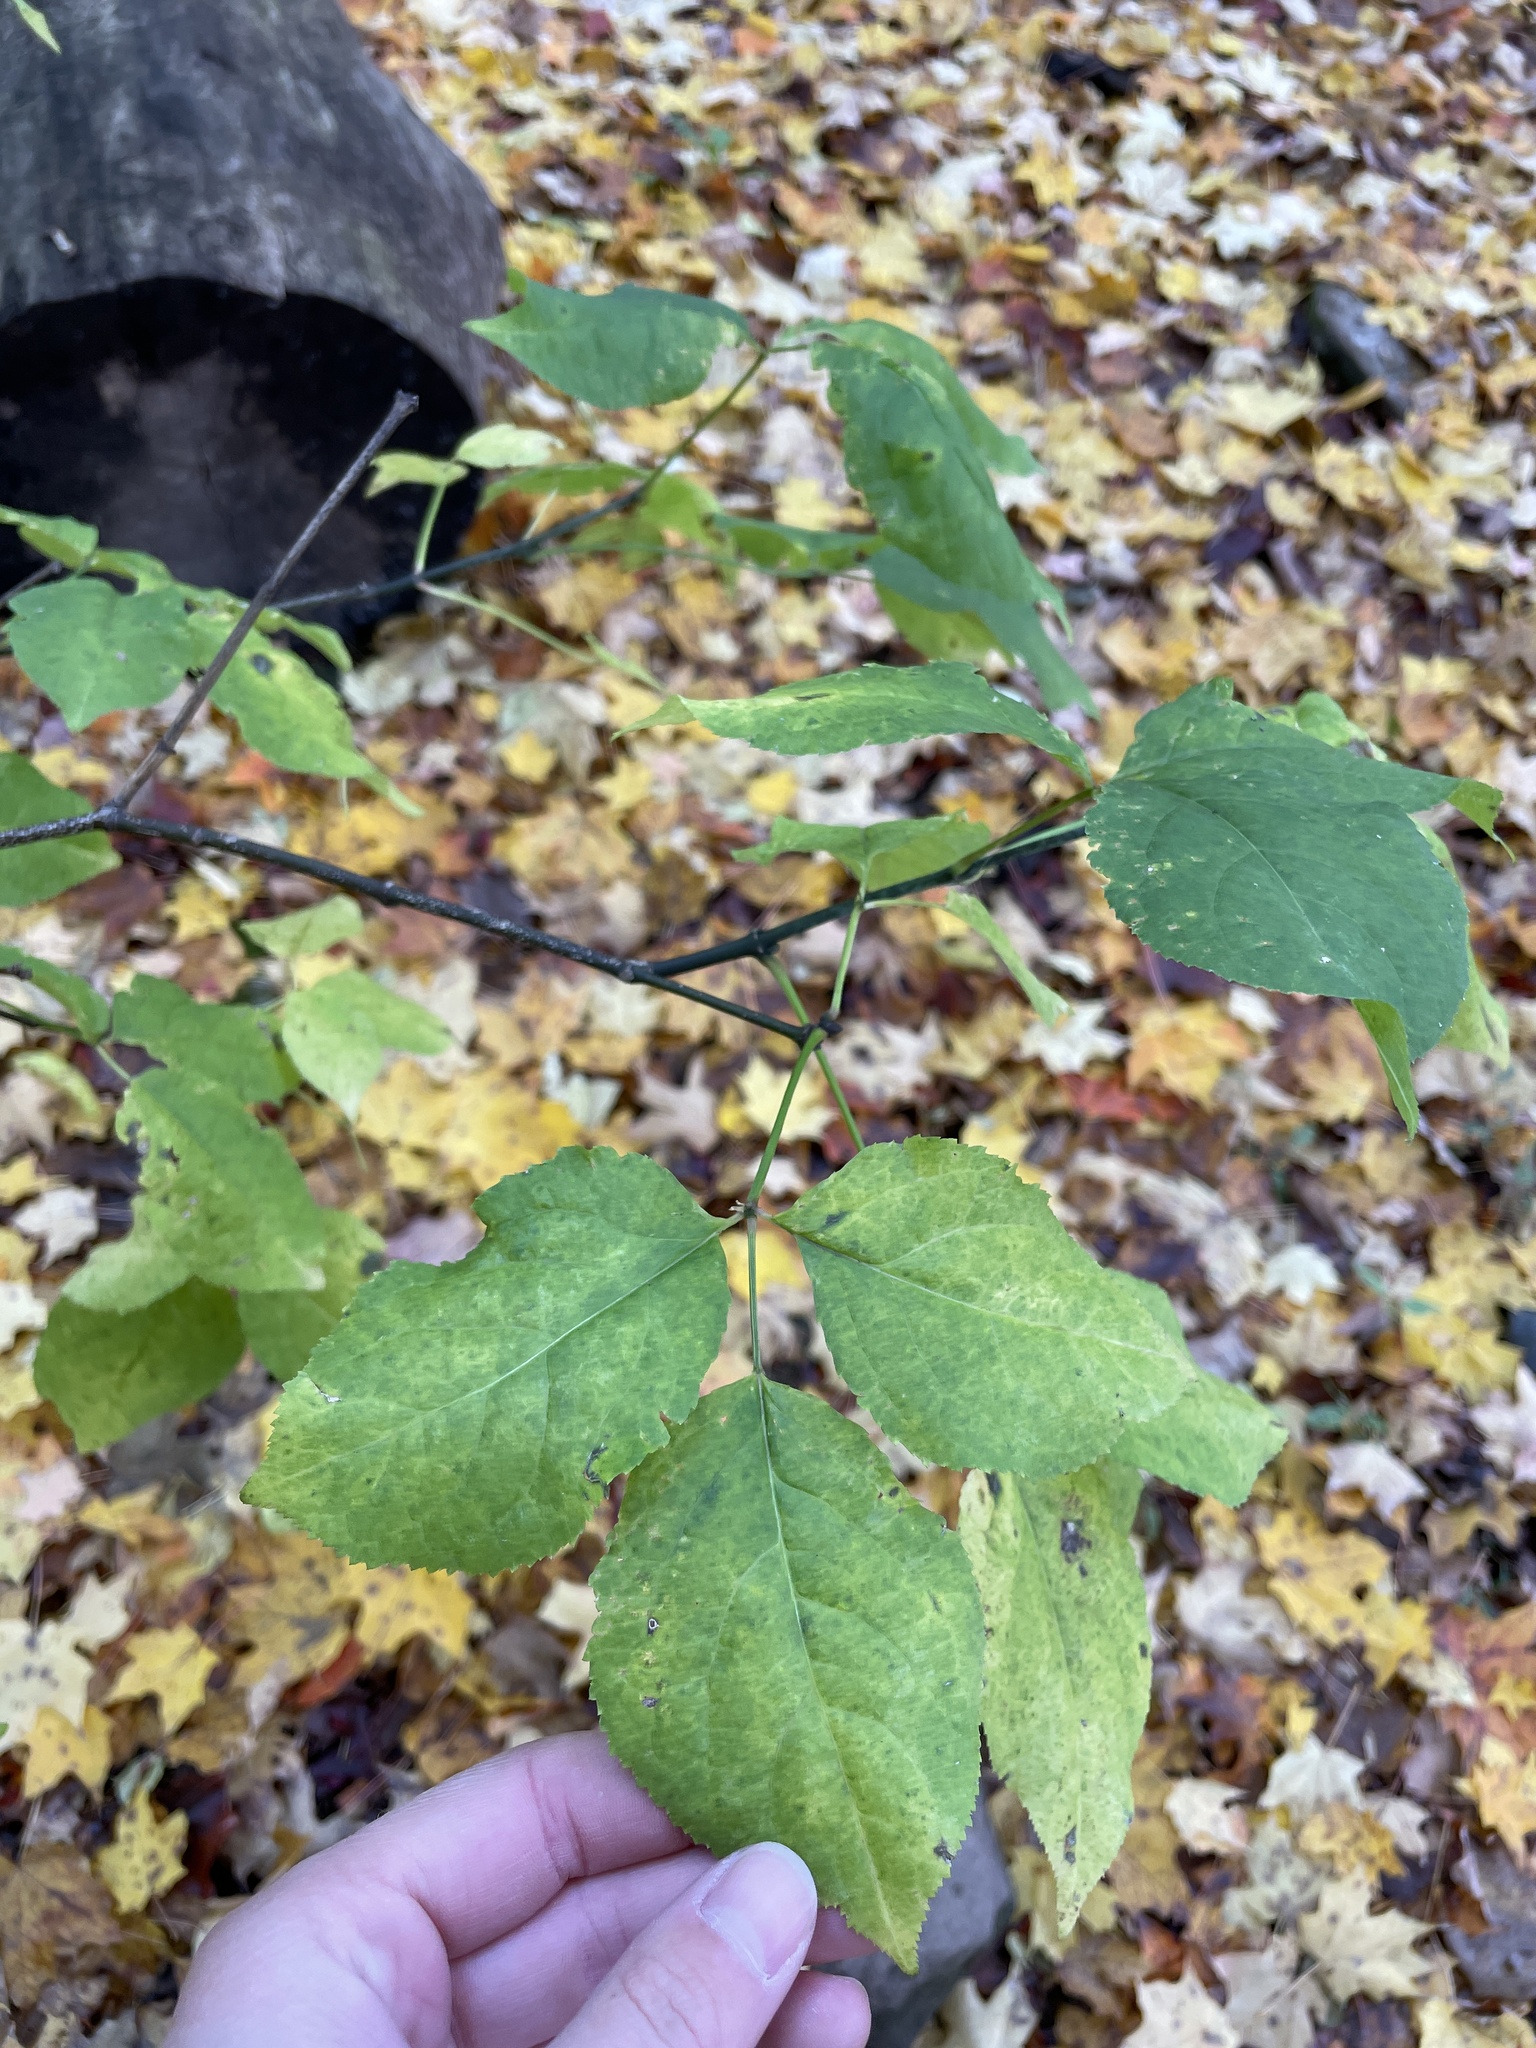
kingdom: Plantae
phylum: Tracheophyta
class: Magnoliopsida
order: Crossosomatales
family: Staphyleaceae
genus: Staphylea
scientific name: Staphylea trifolia
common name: American bladdernut
